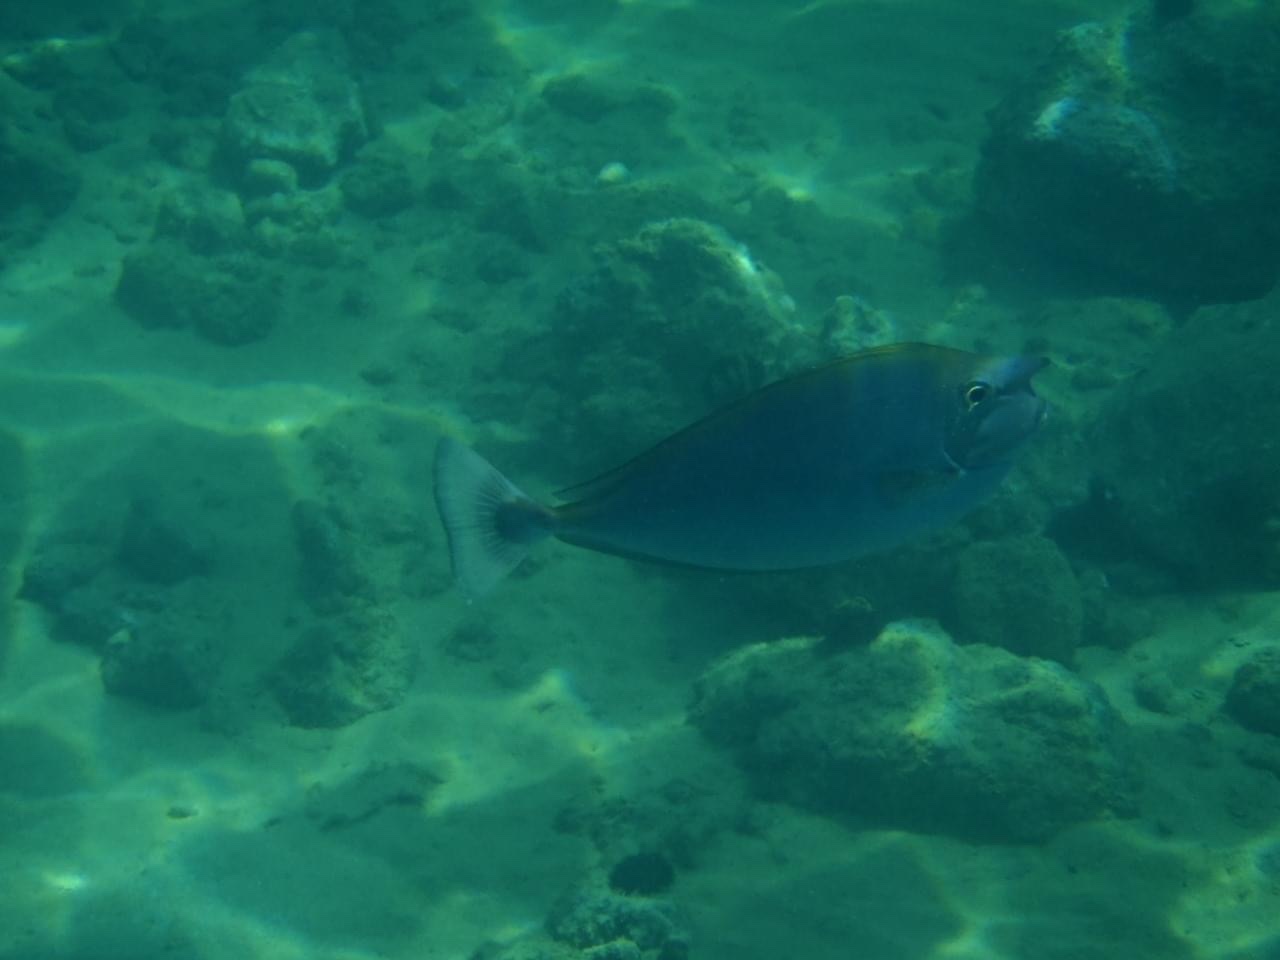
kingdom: Animalia
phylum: Chordata
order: Perciformes
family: Acanthuridae
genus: Naso
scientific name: Naso brevirostris
